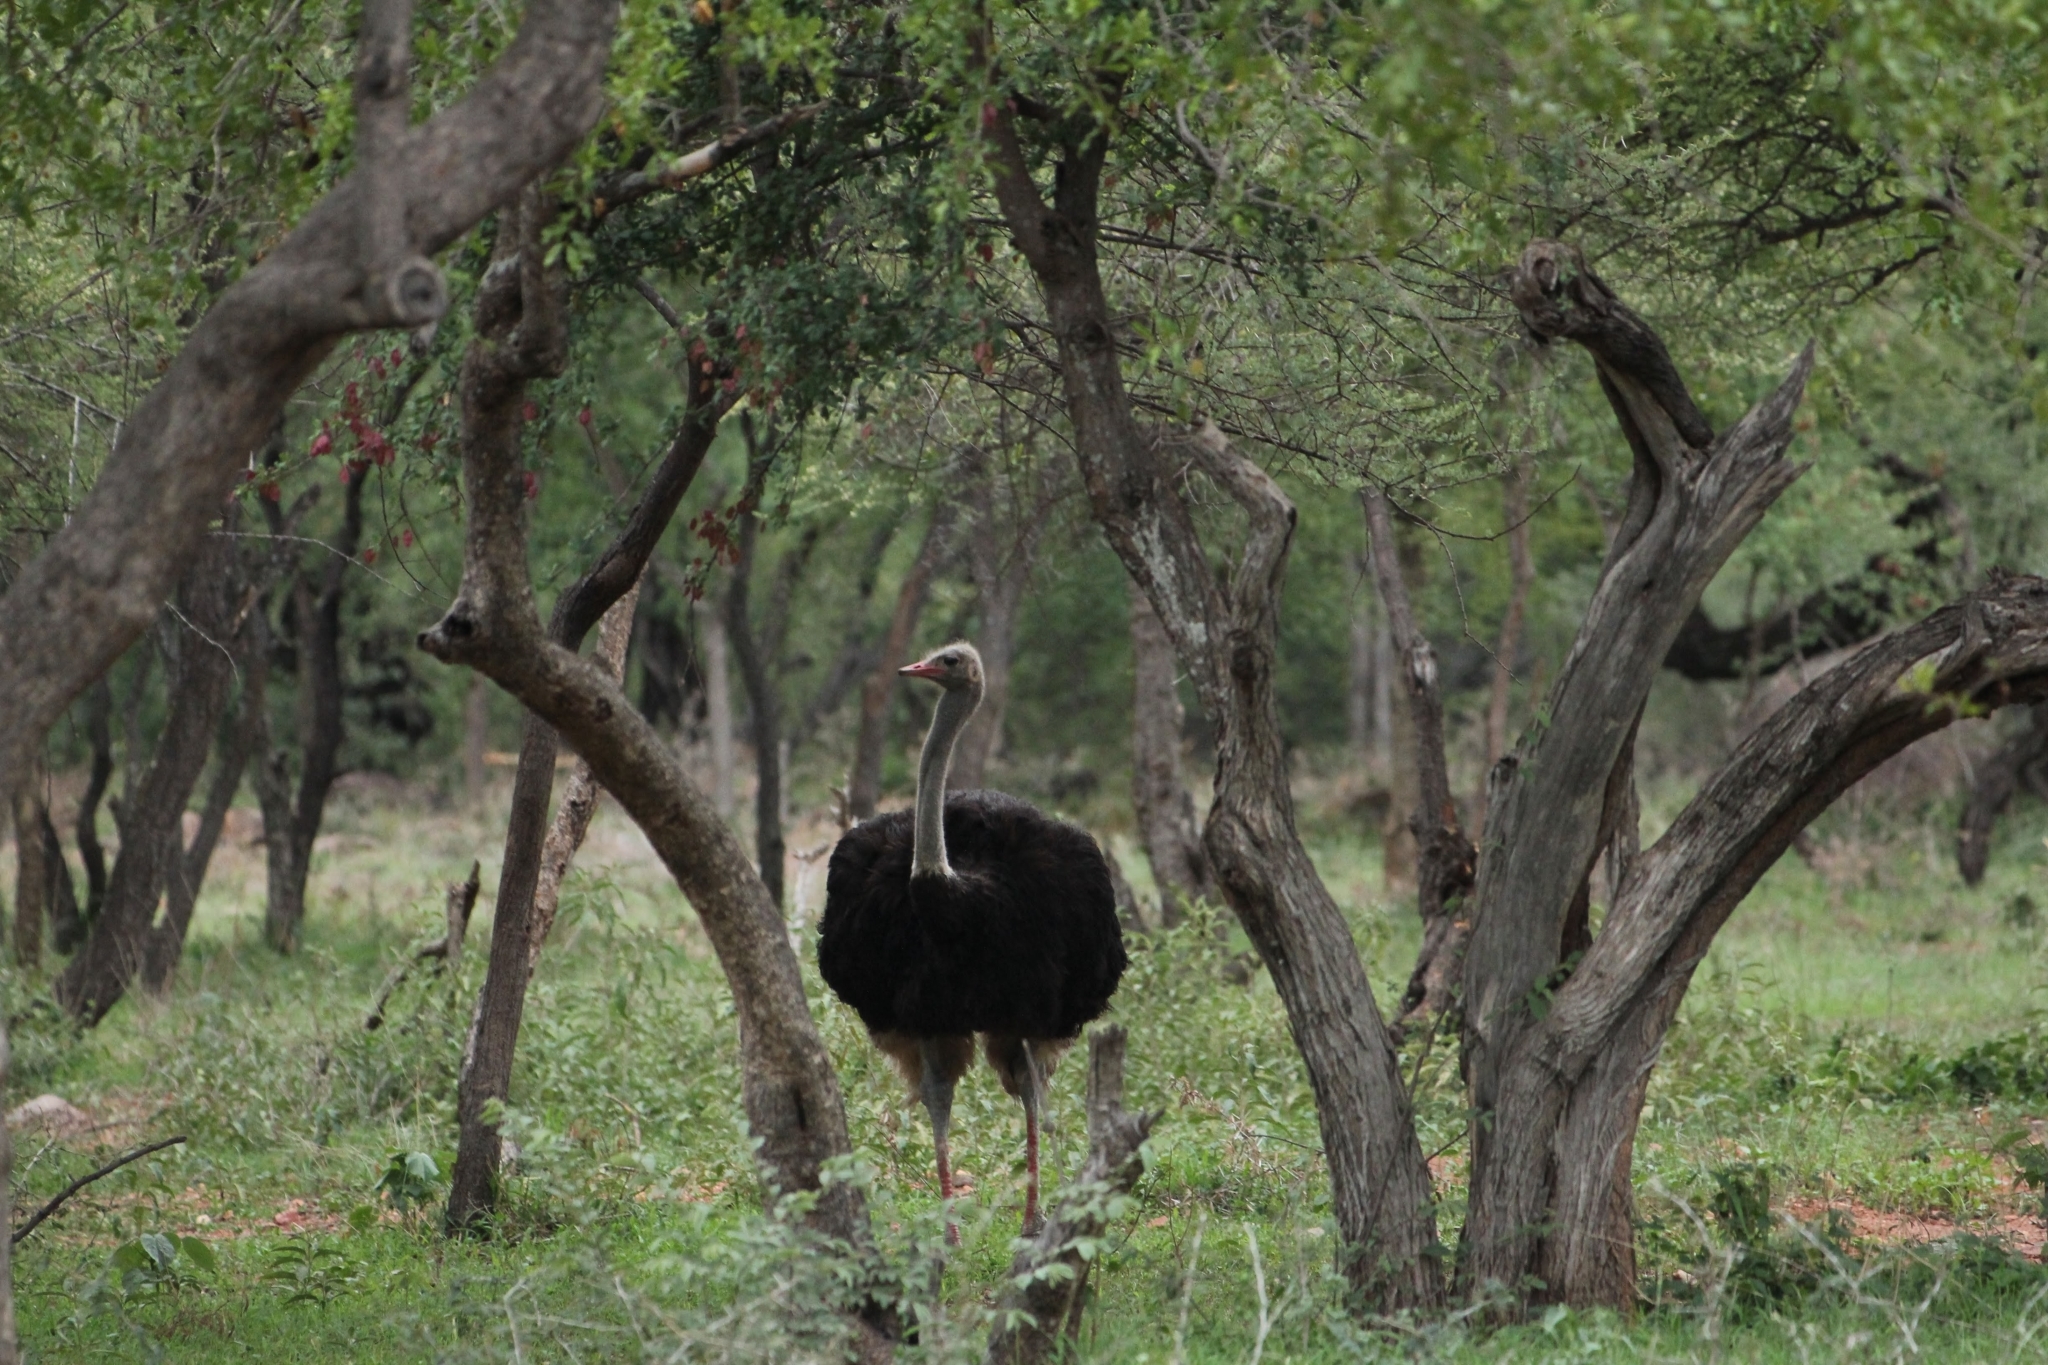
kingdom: Animalia
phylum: Chordata
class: Aves
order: Struthioniformes
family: Struthionidae
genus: Struthio
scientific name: Struthio camelus
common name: Common ostrich
